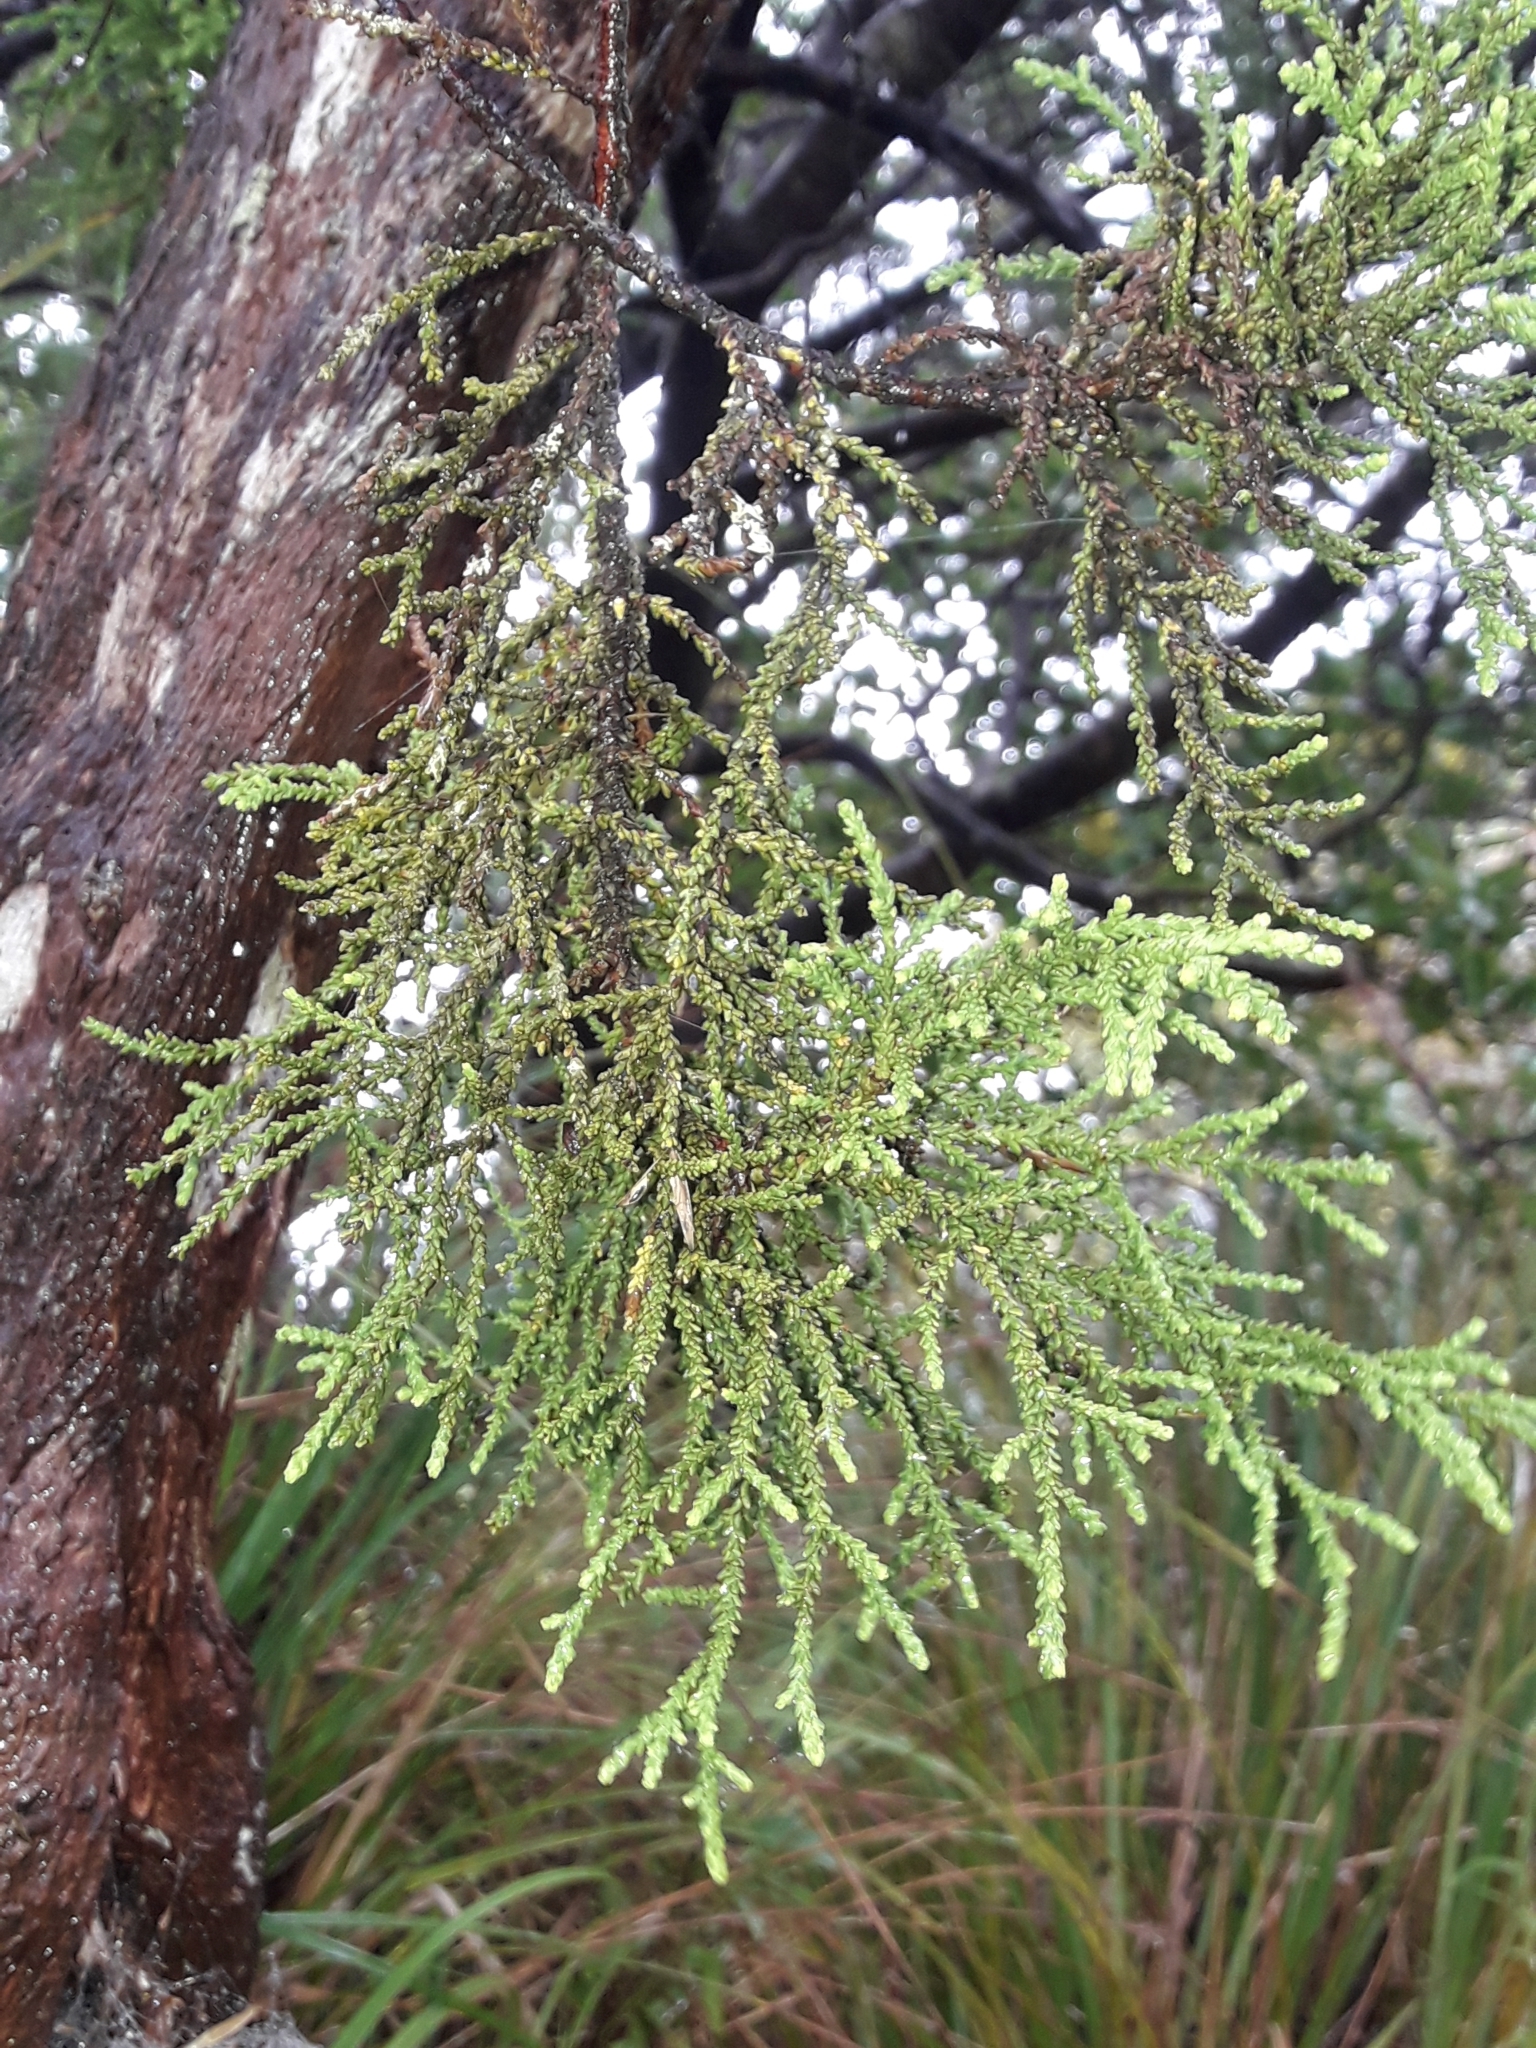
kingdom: Plantae
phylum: Tracheophyta
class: Pinopsida
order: Pinales
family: Podocarpaceae
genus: Lepidothamnus
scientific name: Lepidothamnus intermedius
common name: Yellow silver pine
